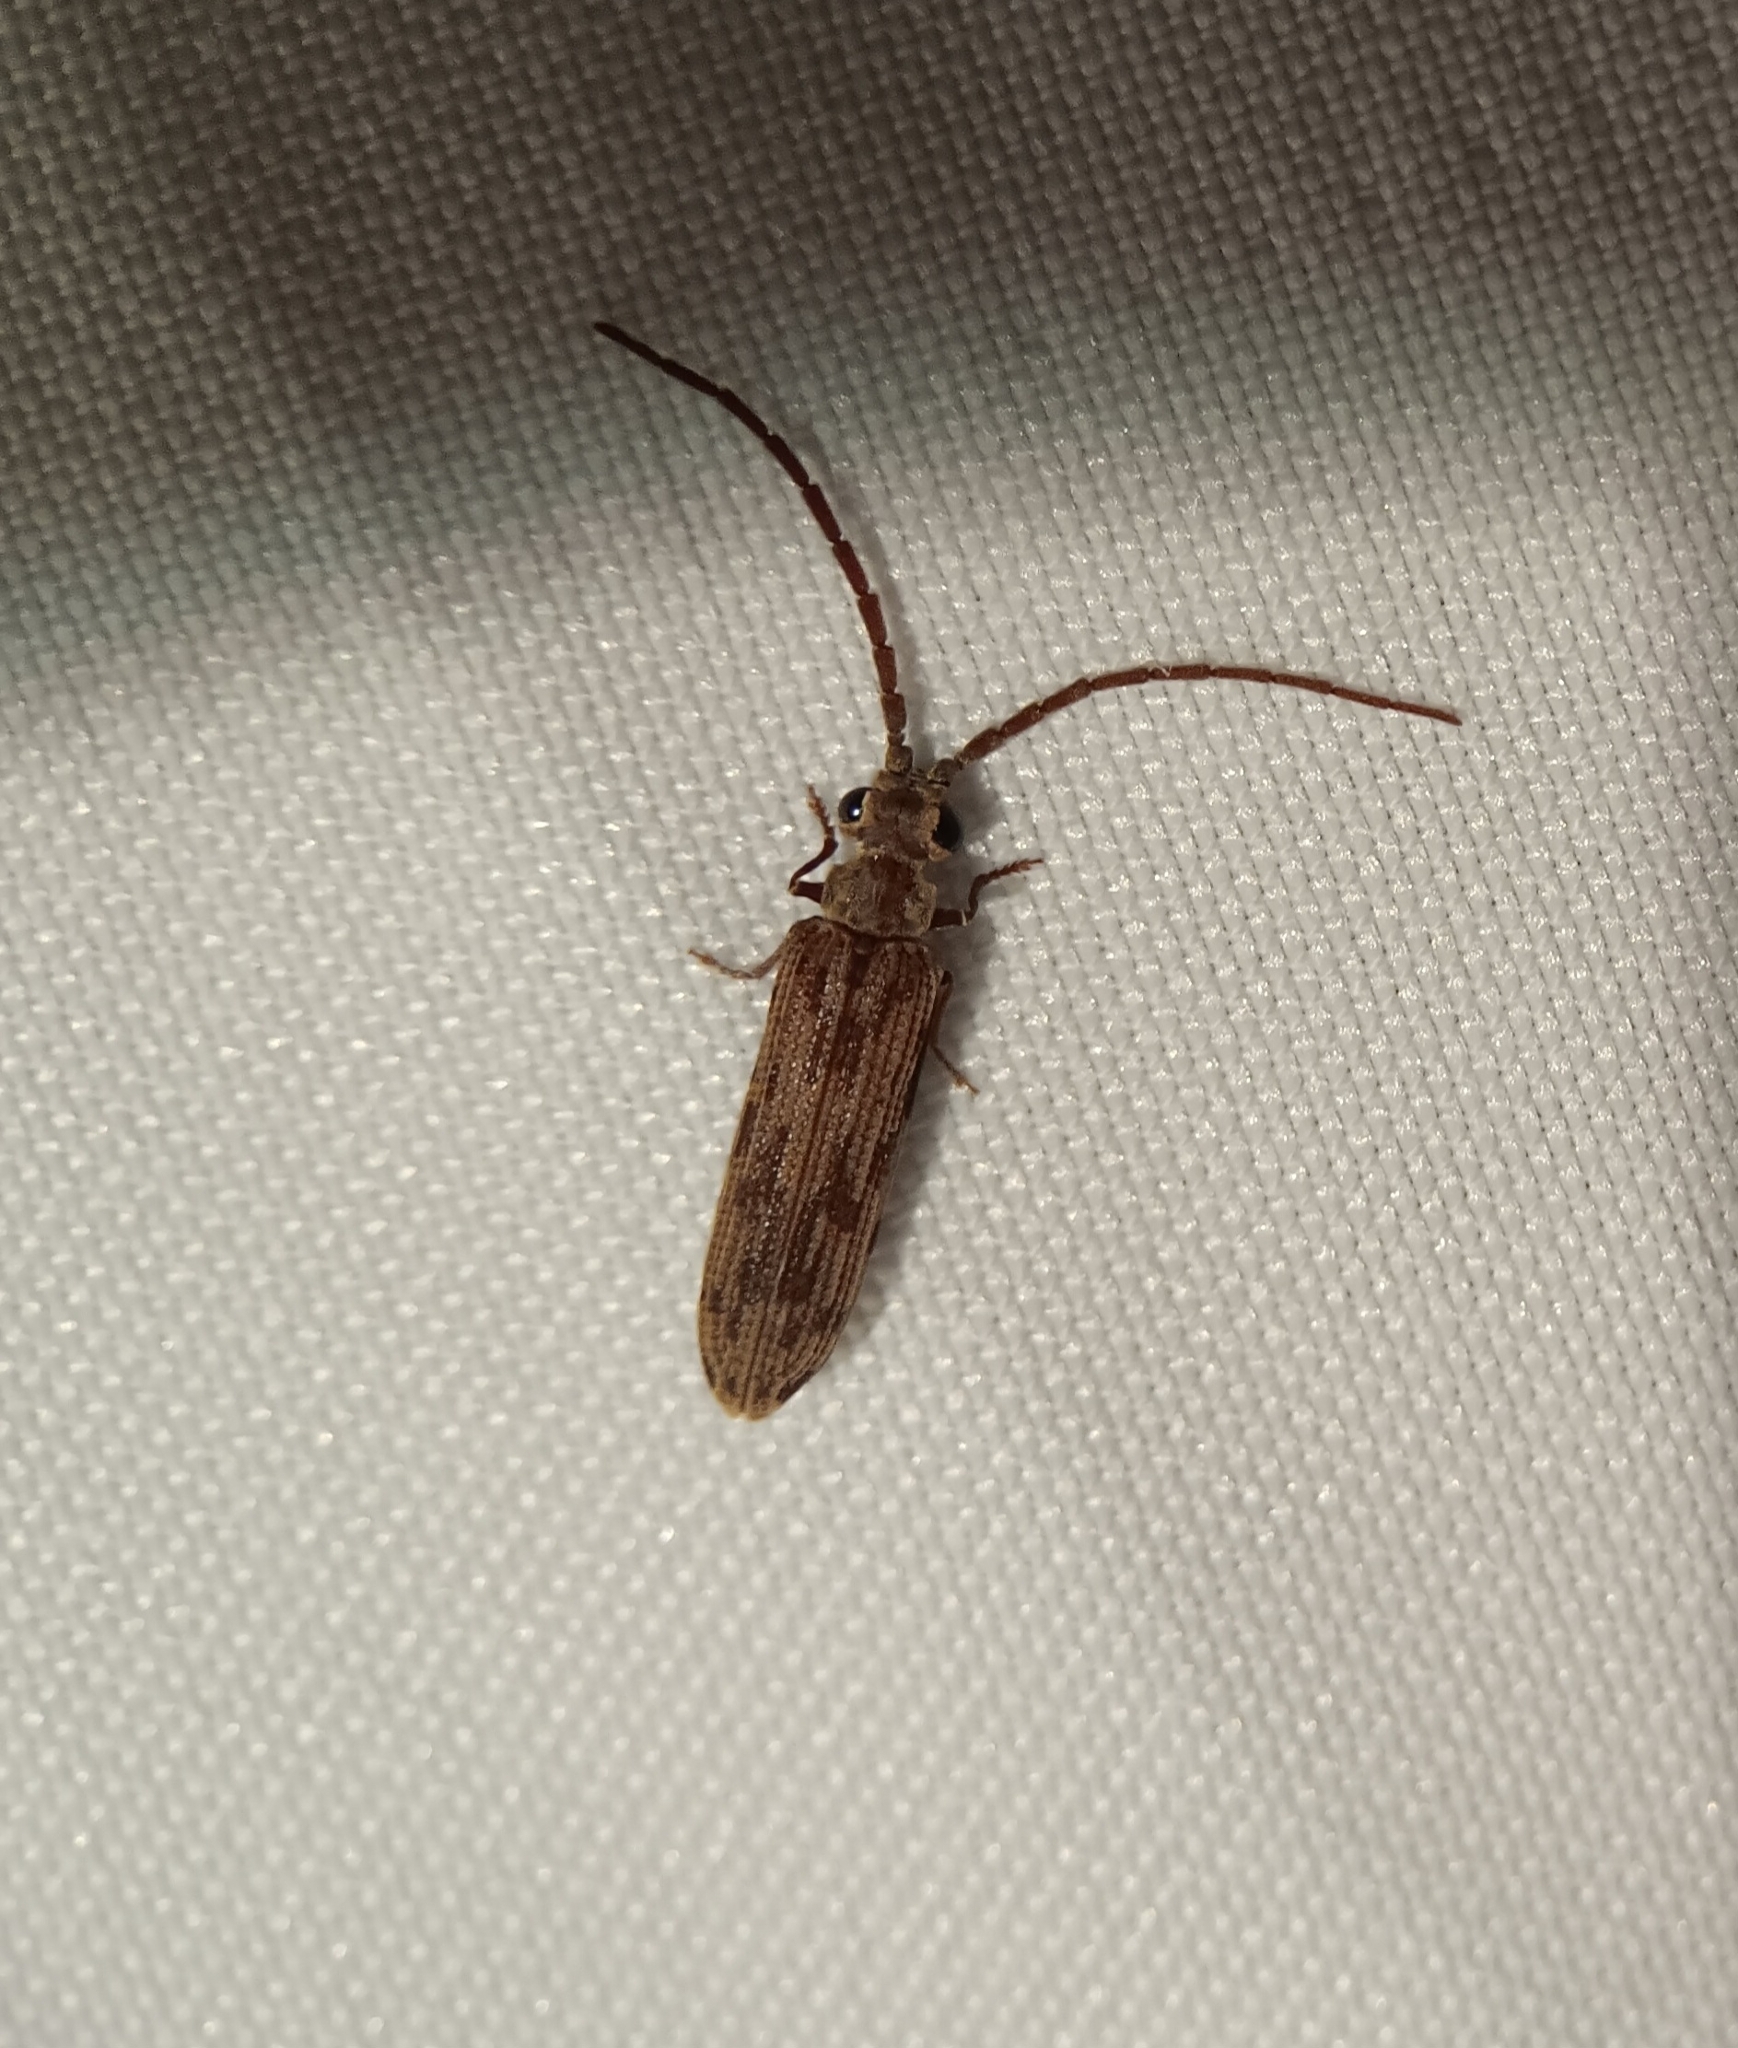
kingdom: Animalia
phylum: Arthropoda
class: Insecta
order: Coleoptera
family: Cupedidae
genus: Tenomerga
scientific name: Tenomerga cinerea
